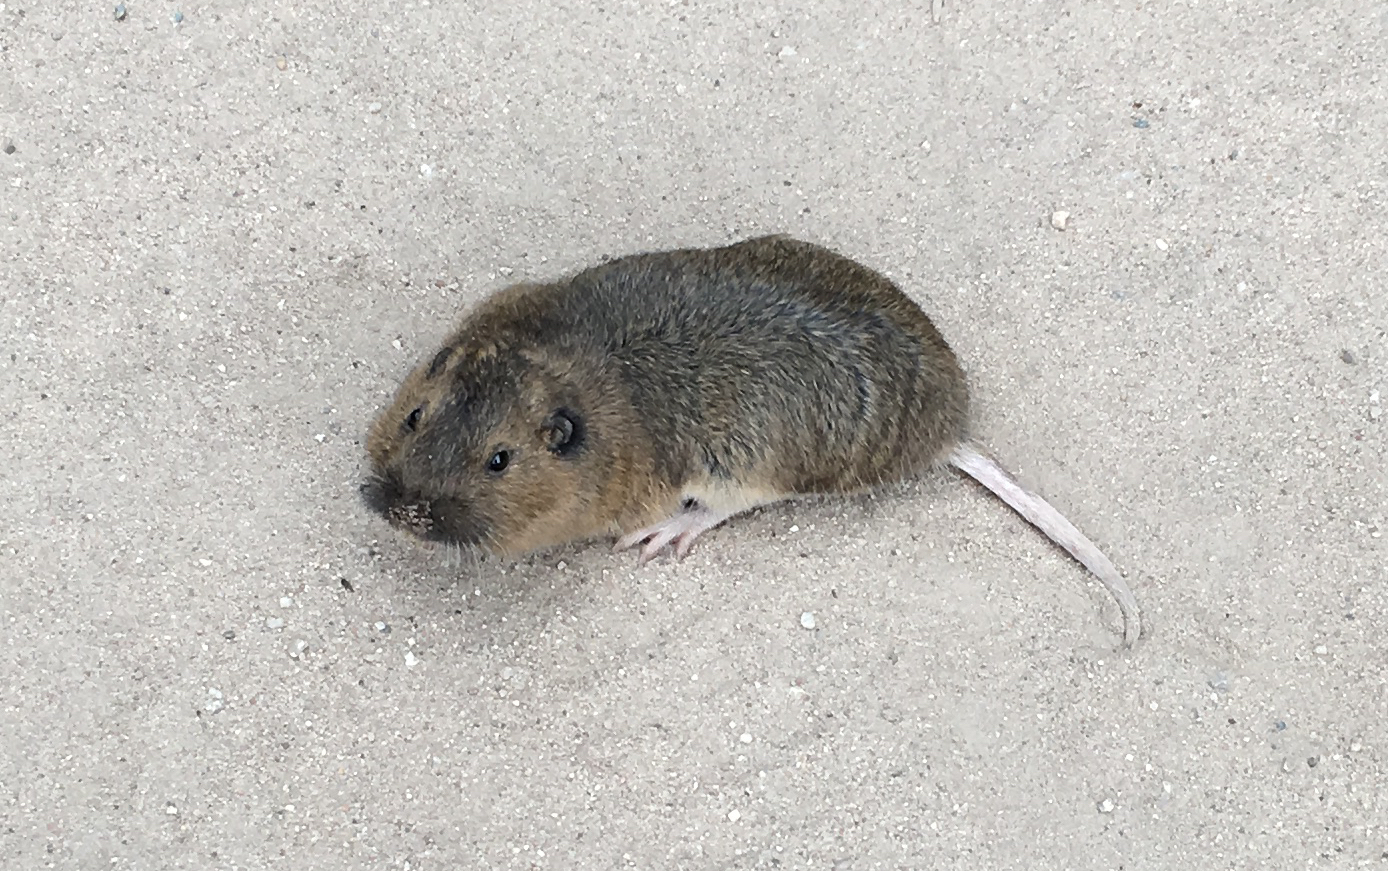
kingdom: Animalia
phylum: Chordata
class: Mammalia
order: Rodentia
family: Geomyidae
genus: Thomomys
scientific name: Thomomys bottae
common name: Botta's pocket gopher
